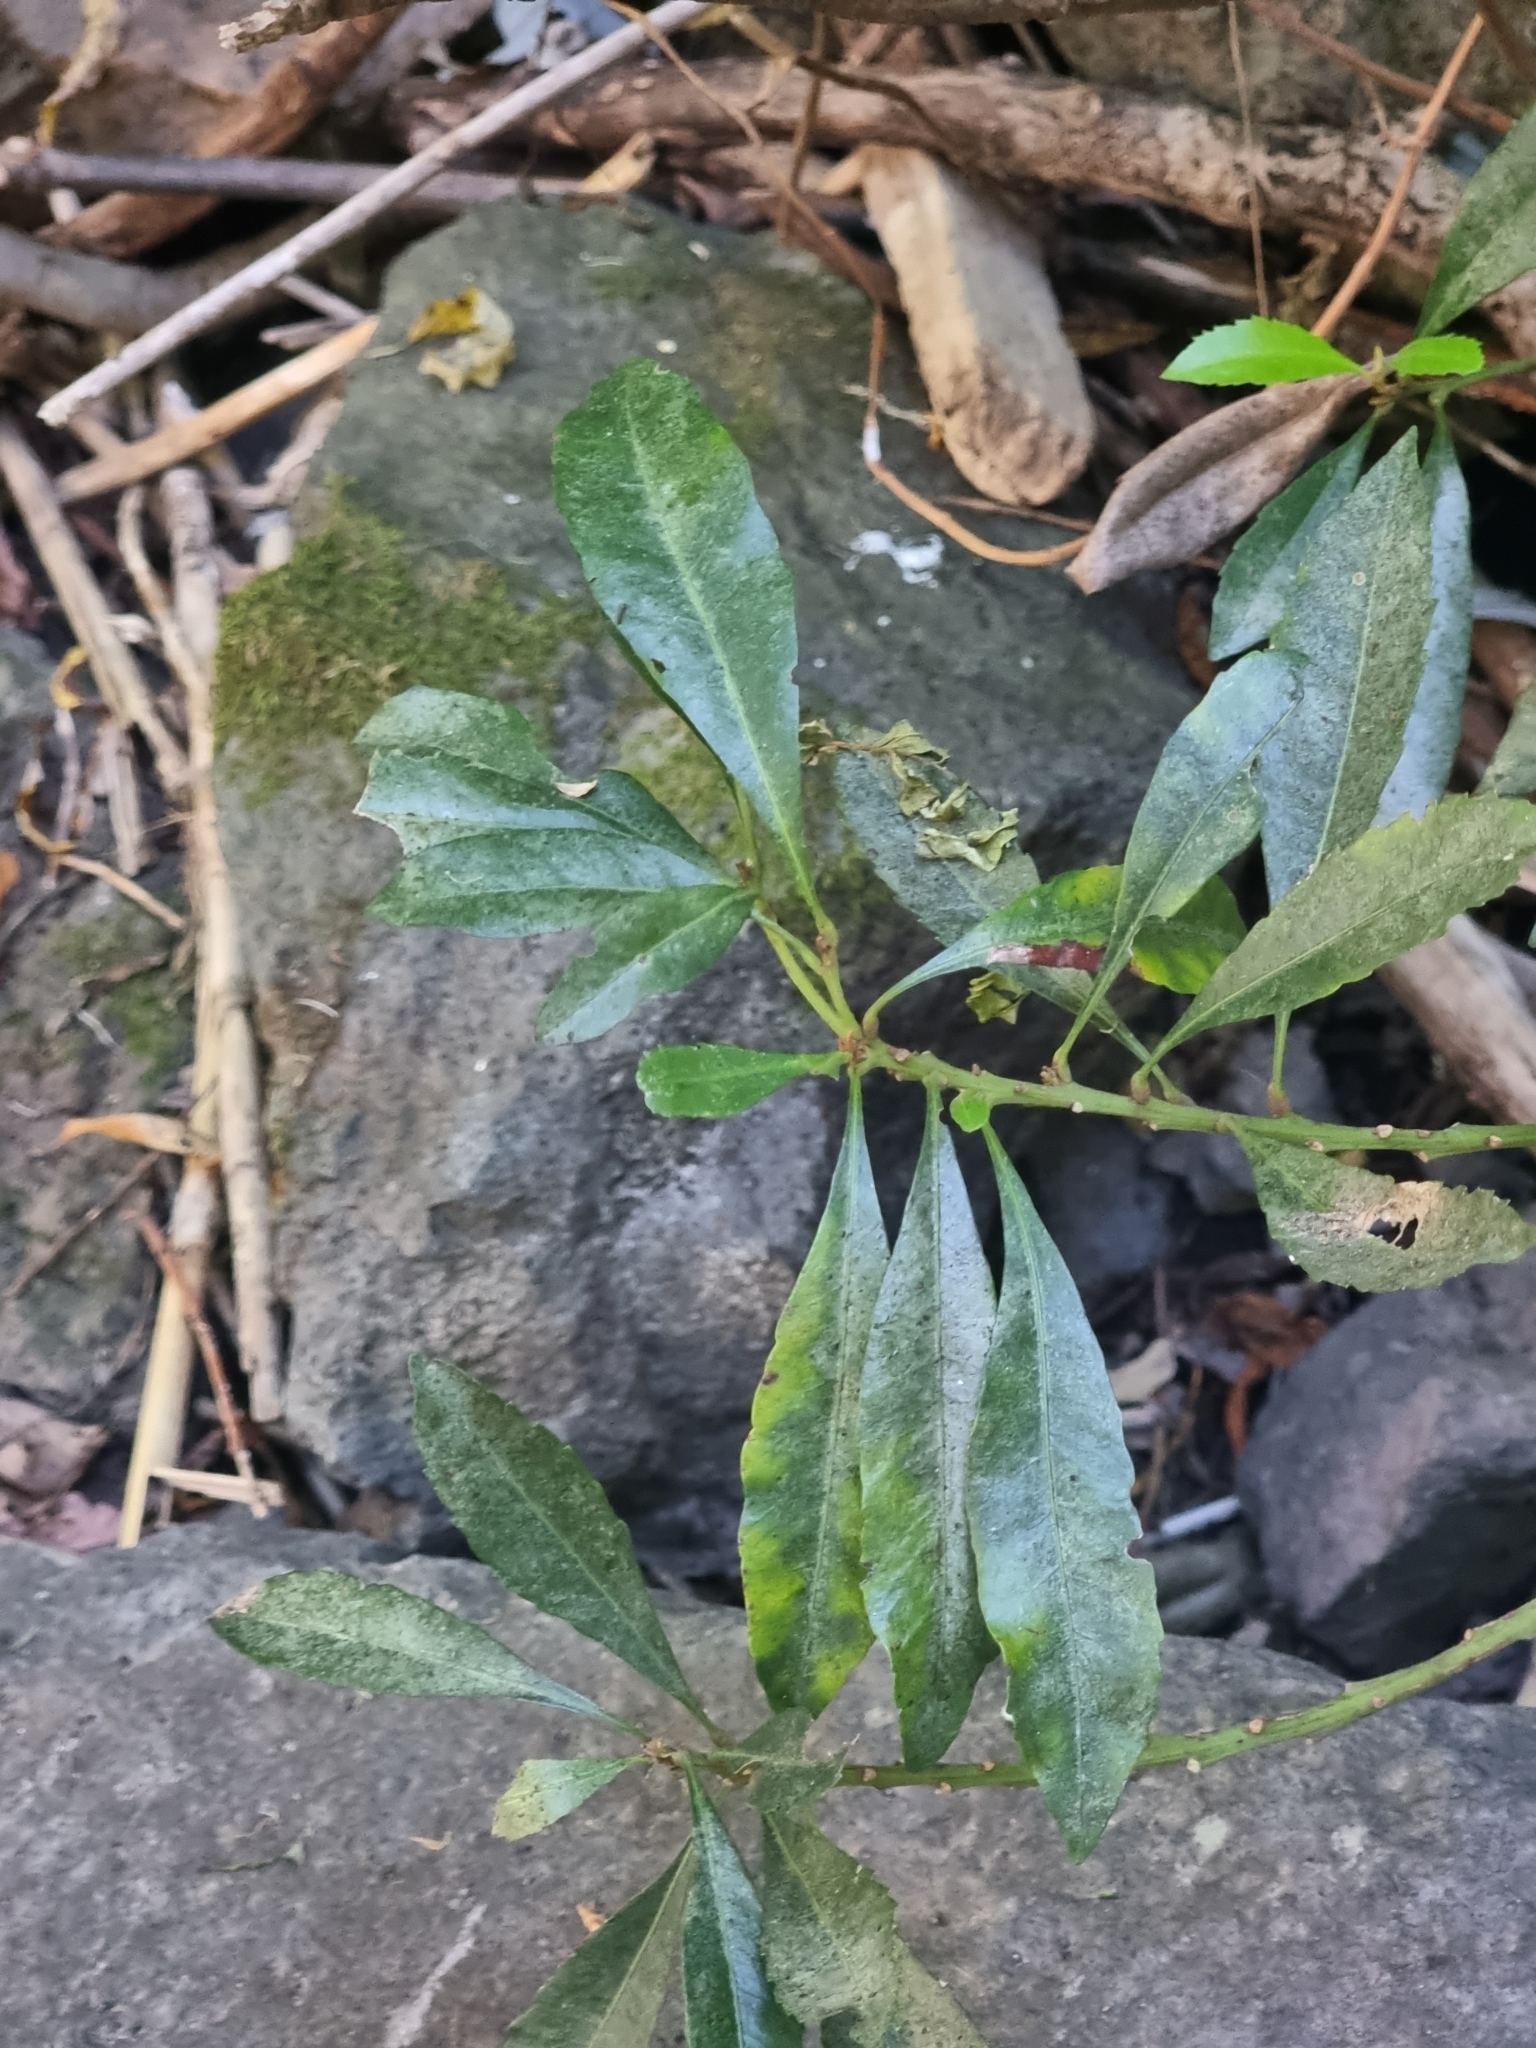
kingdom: Plantae
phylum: Tracheophyta
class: Magnoliopsida
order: Fagales
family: Myricaceae
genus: Morella
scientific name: Morella faya
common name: Firetree
